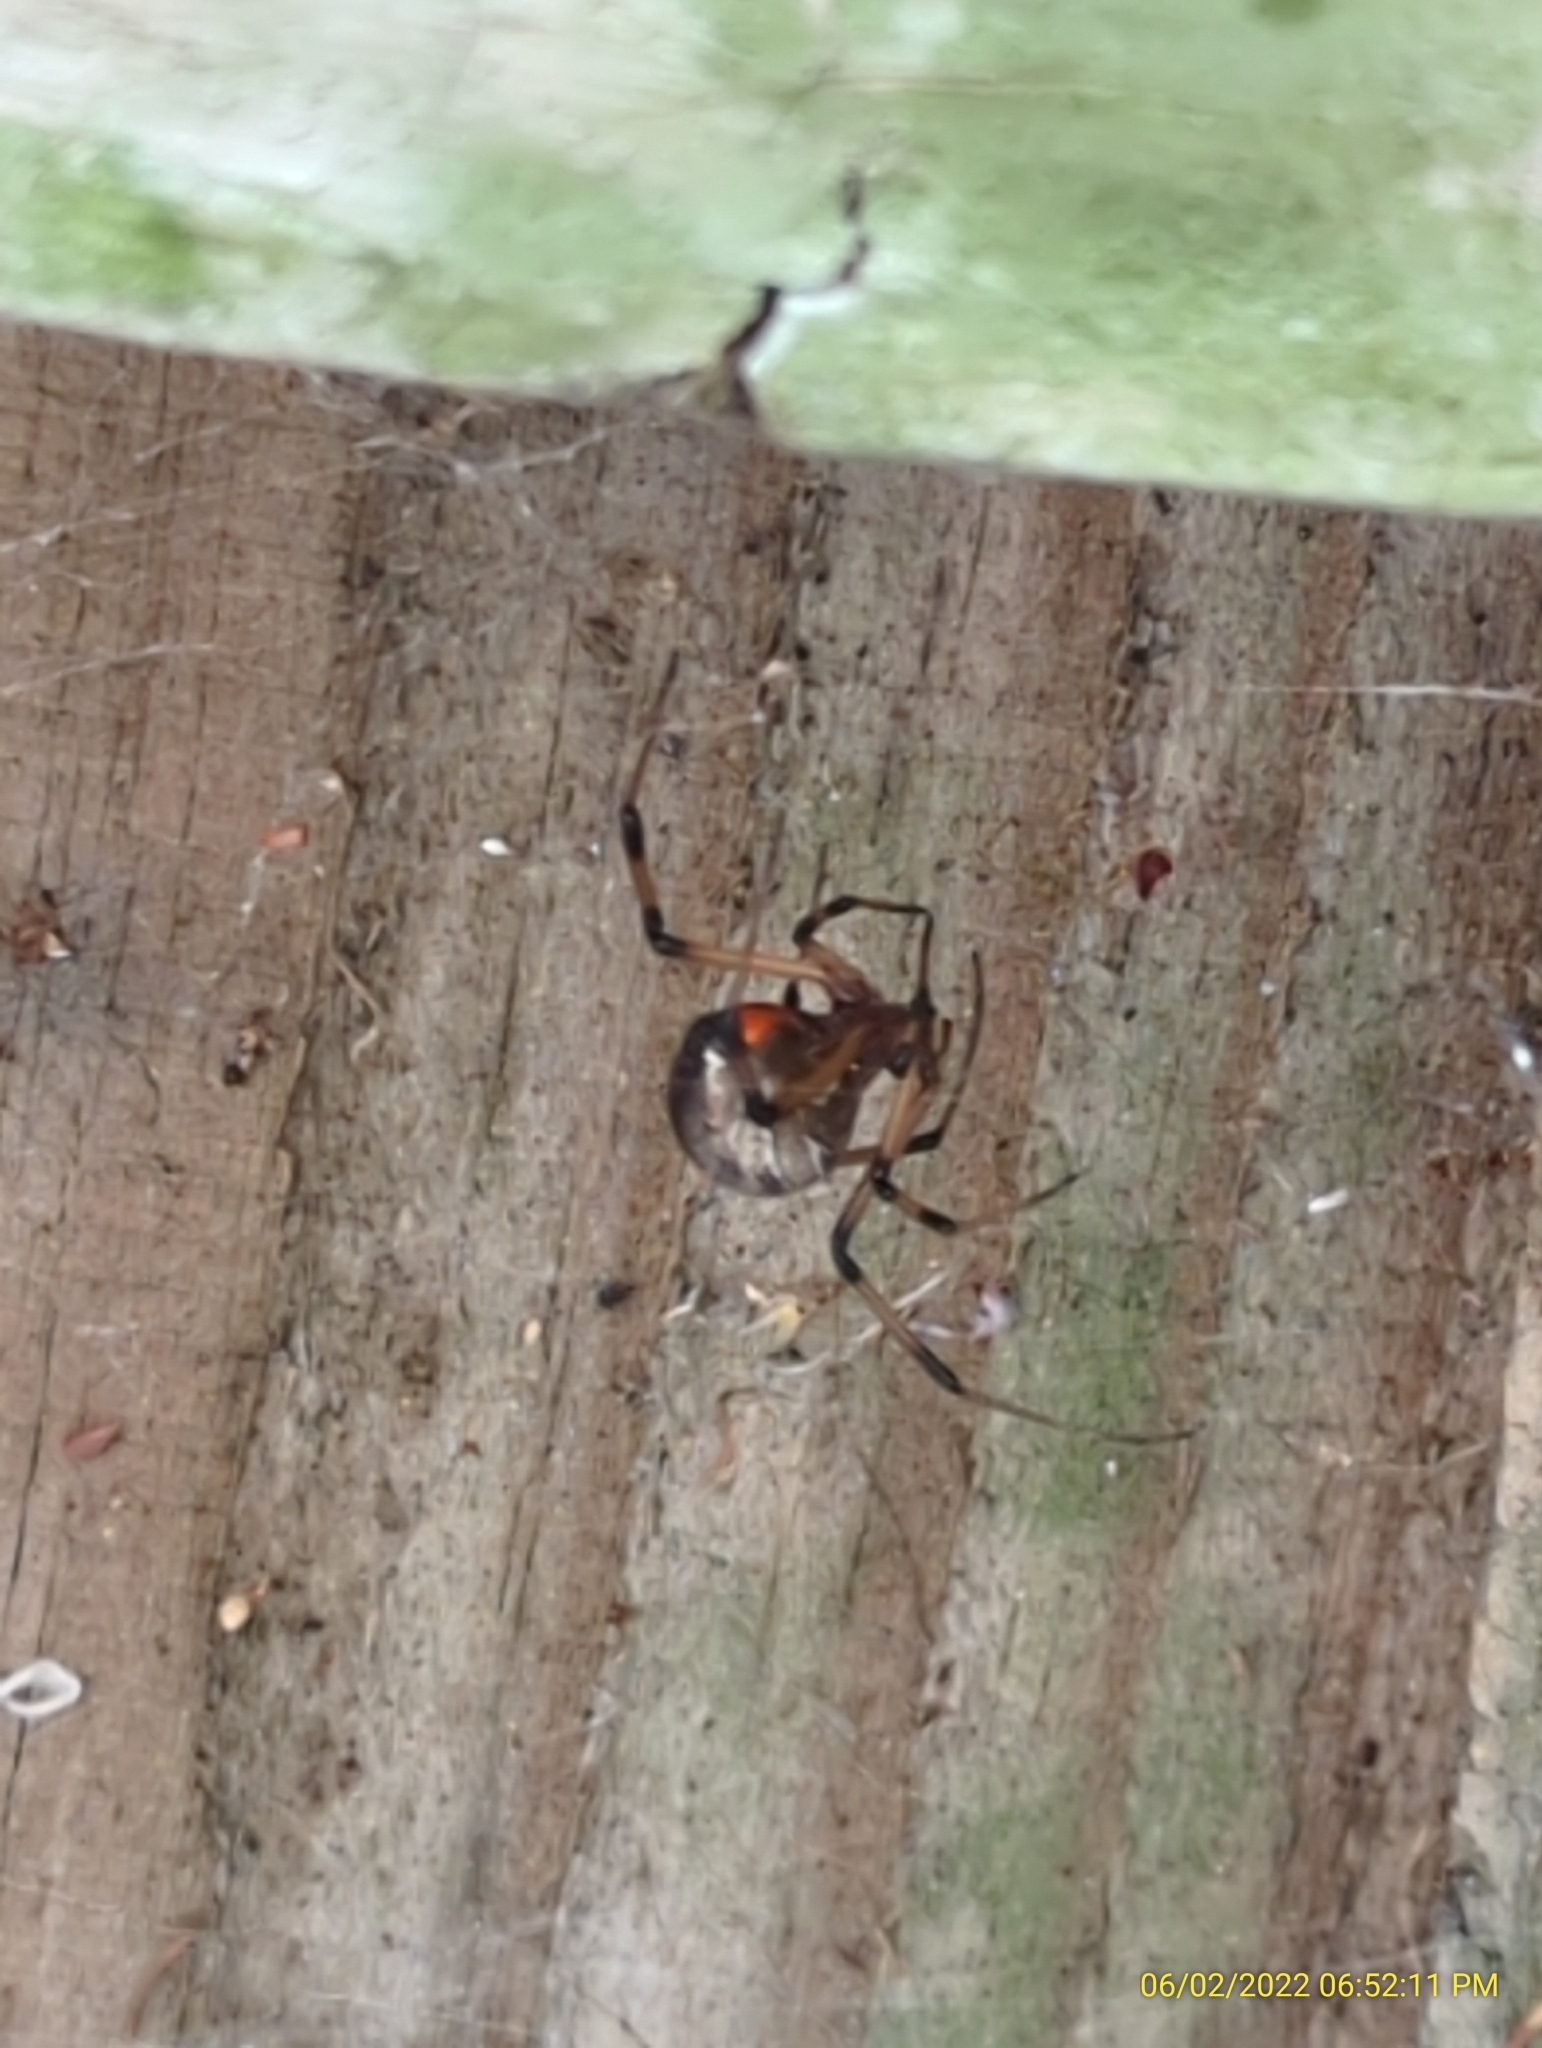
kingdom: Animalia
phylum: Arthropoda
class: Arachnida
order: Araneae
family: Theridiidae
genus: Latrodectus
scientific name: Latrodectus geometricus
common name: Brown widow spider
